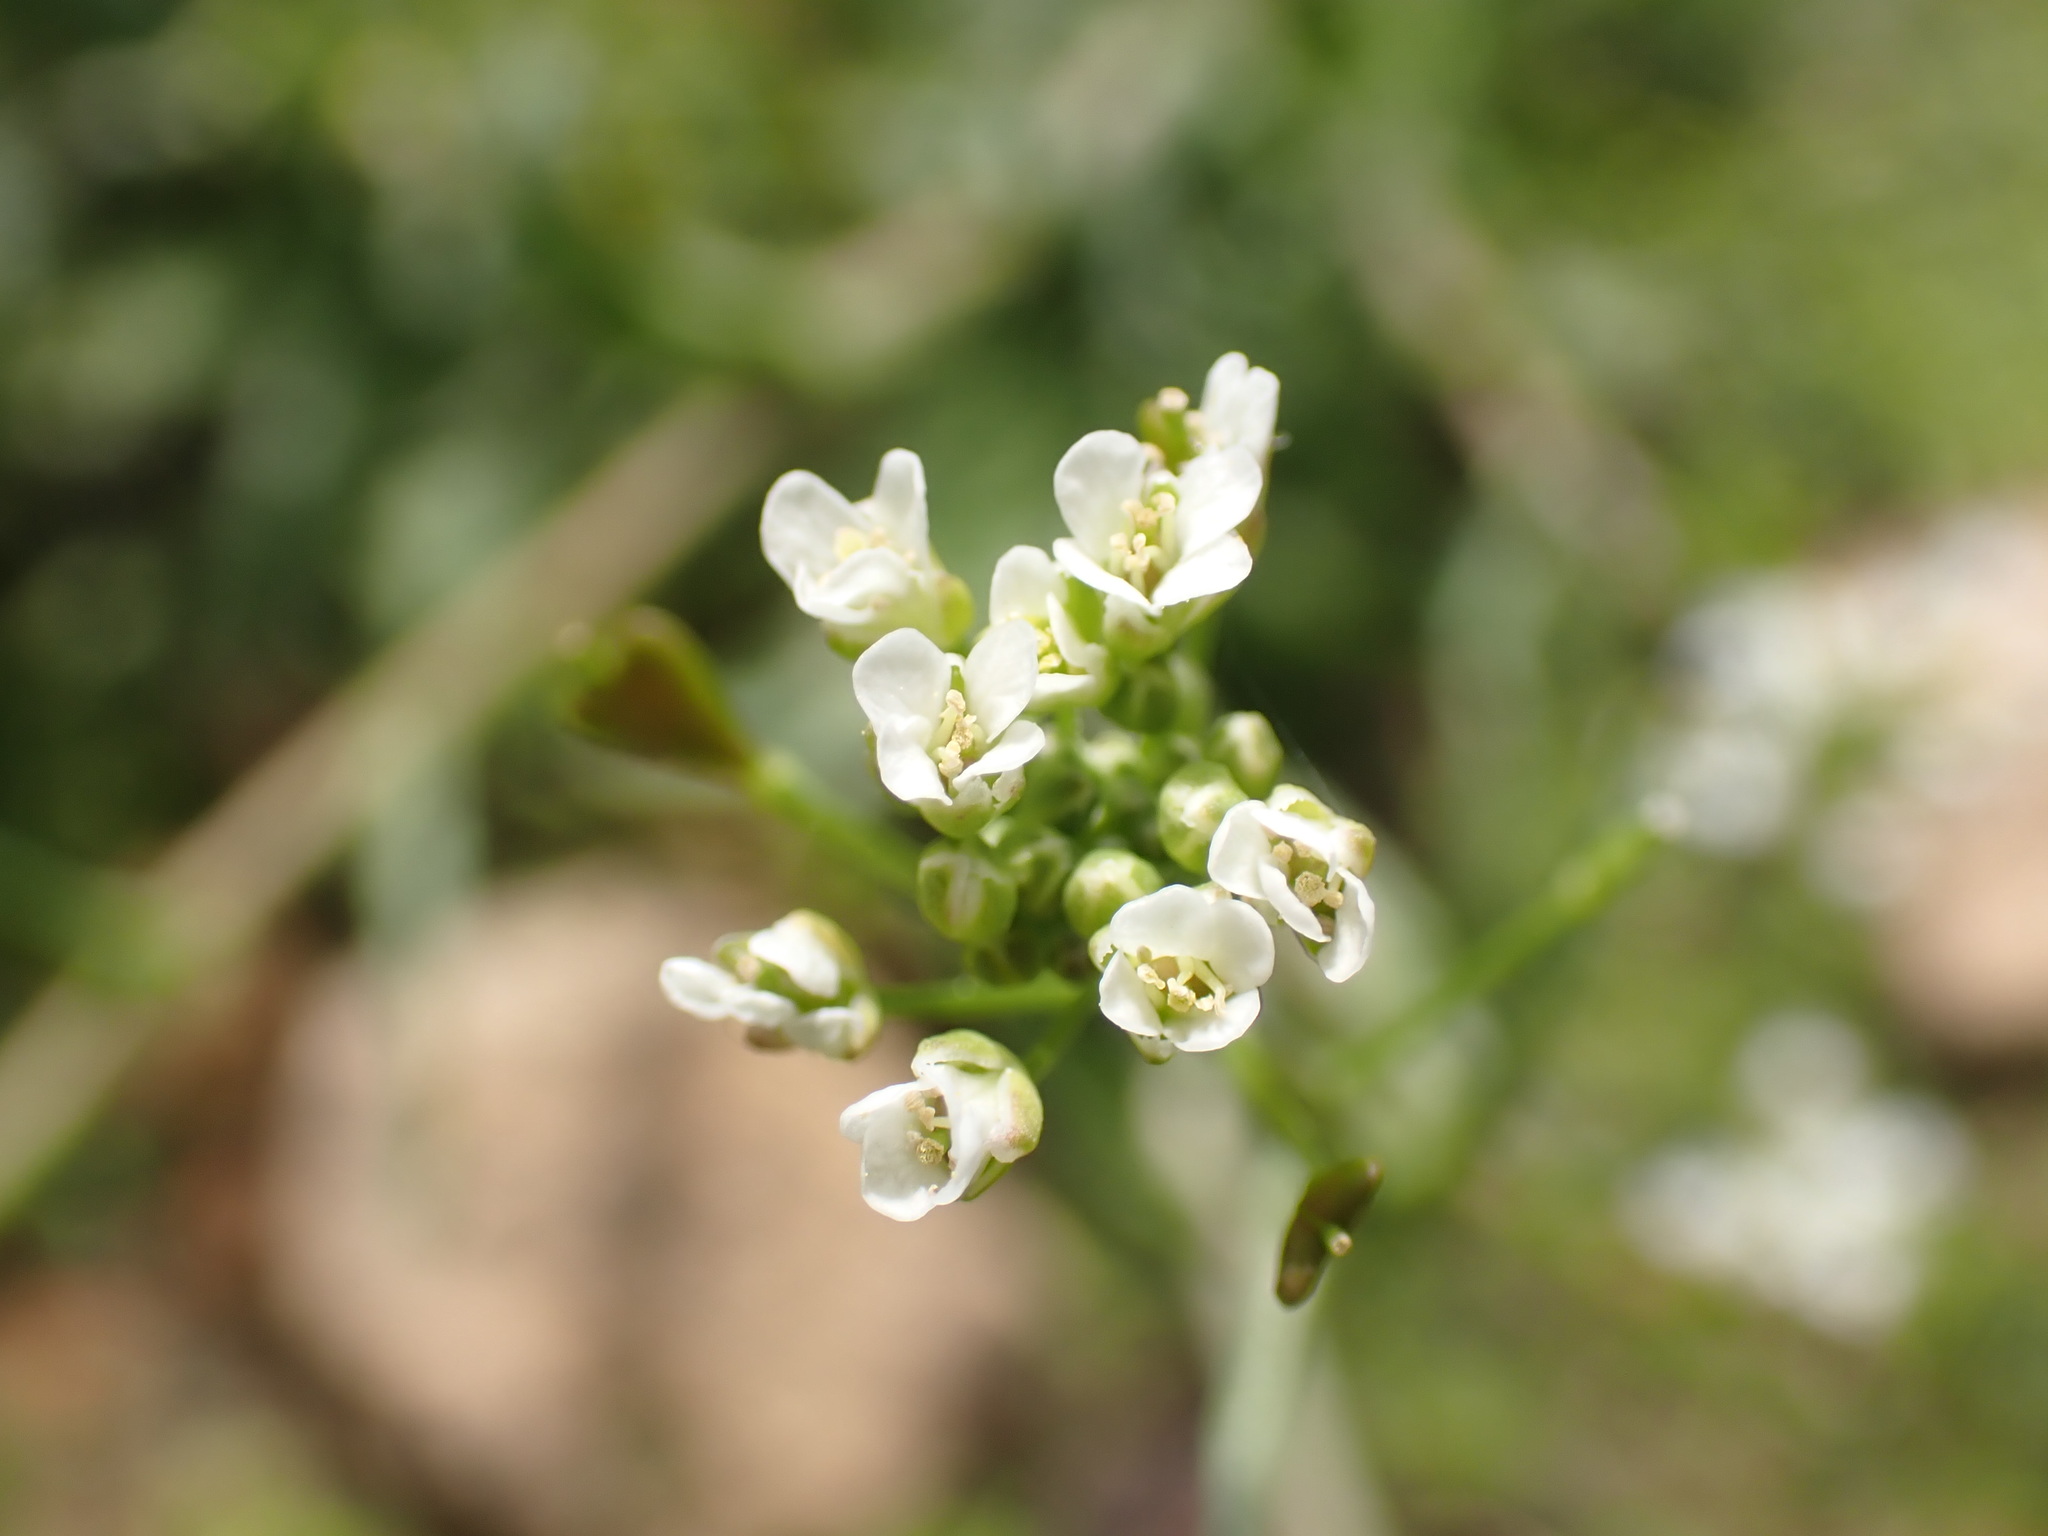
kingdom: Plantae
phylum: Tracheophyta
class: Magnoliopsida
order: Brassicales
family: Brassicaceae
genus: Capsella
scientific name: Capsella bursa-pastoris
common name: Shepherd's purse
